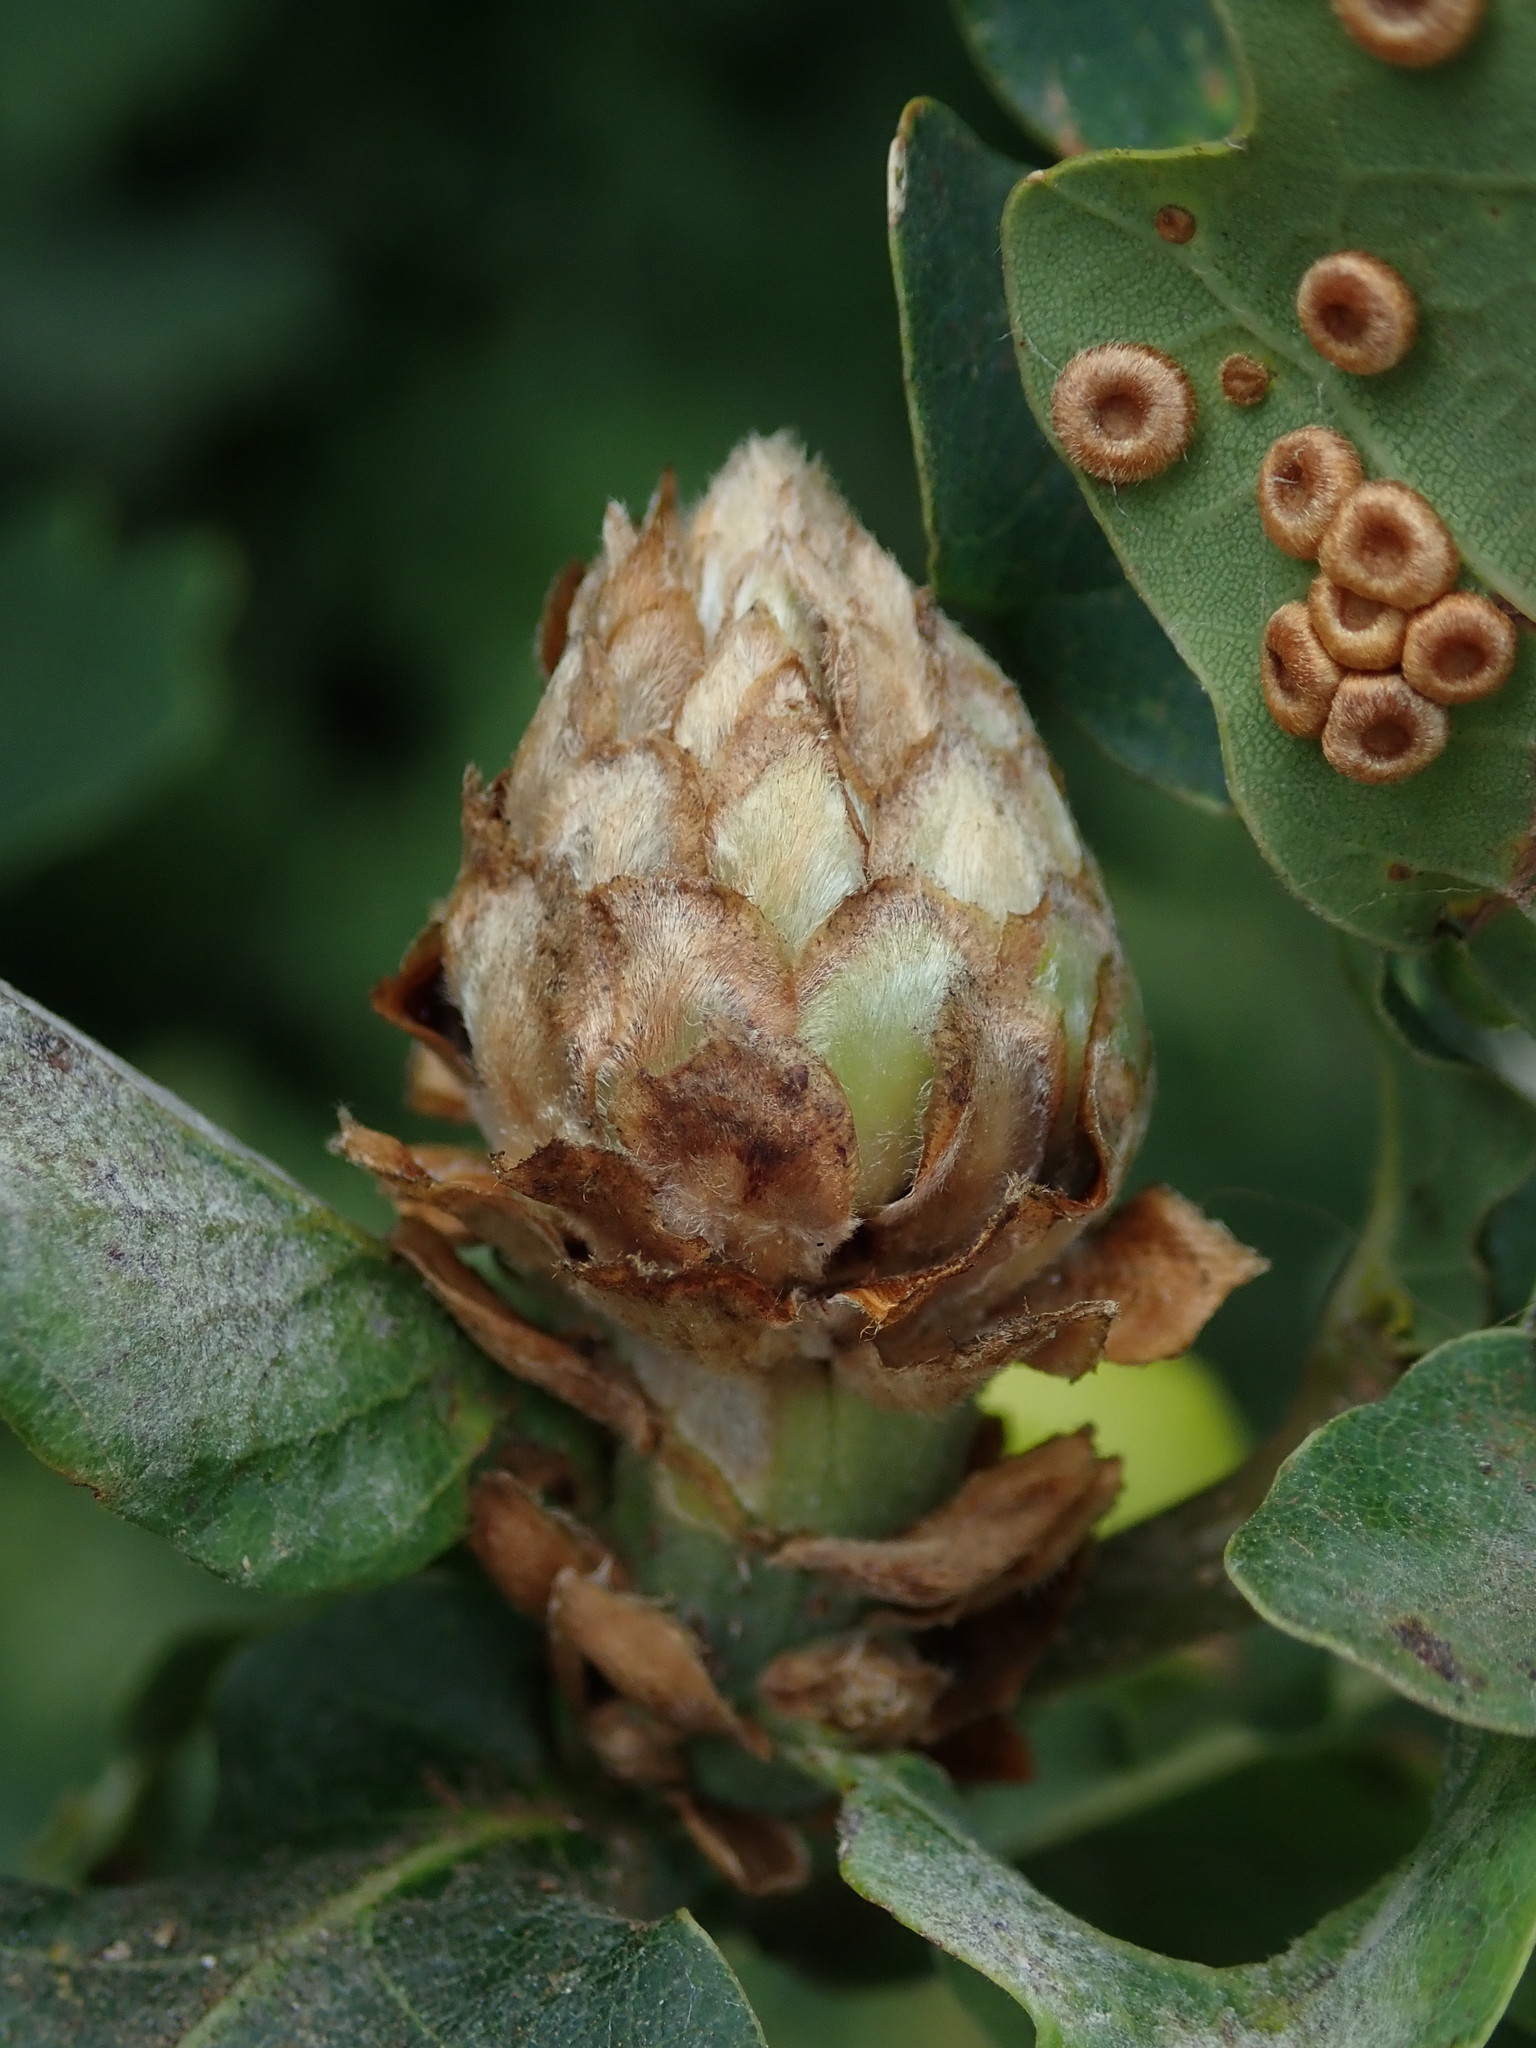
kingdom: Animalia
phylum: Arthropoda
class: Insecta
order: Hymenoptera
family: Cynipidae
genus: Andricus
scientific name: Andricus foecundatrix
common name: Artichoke gall
